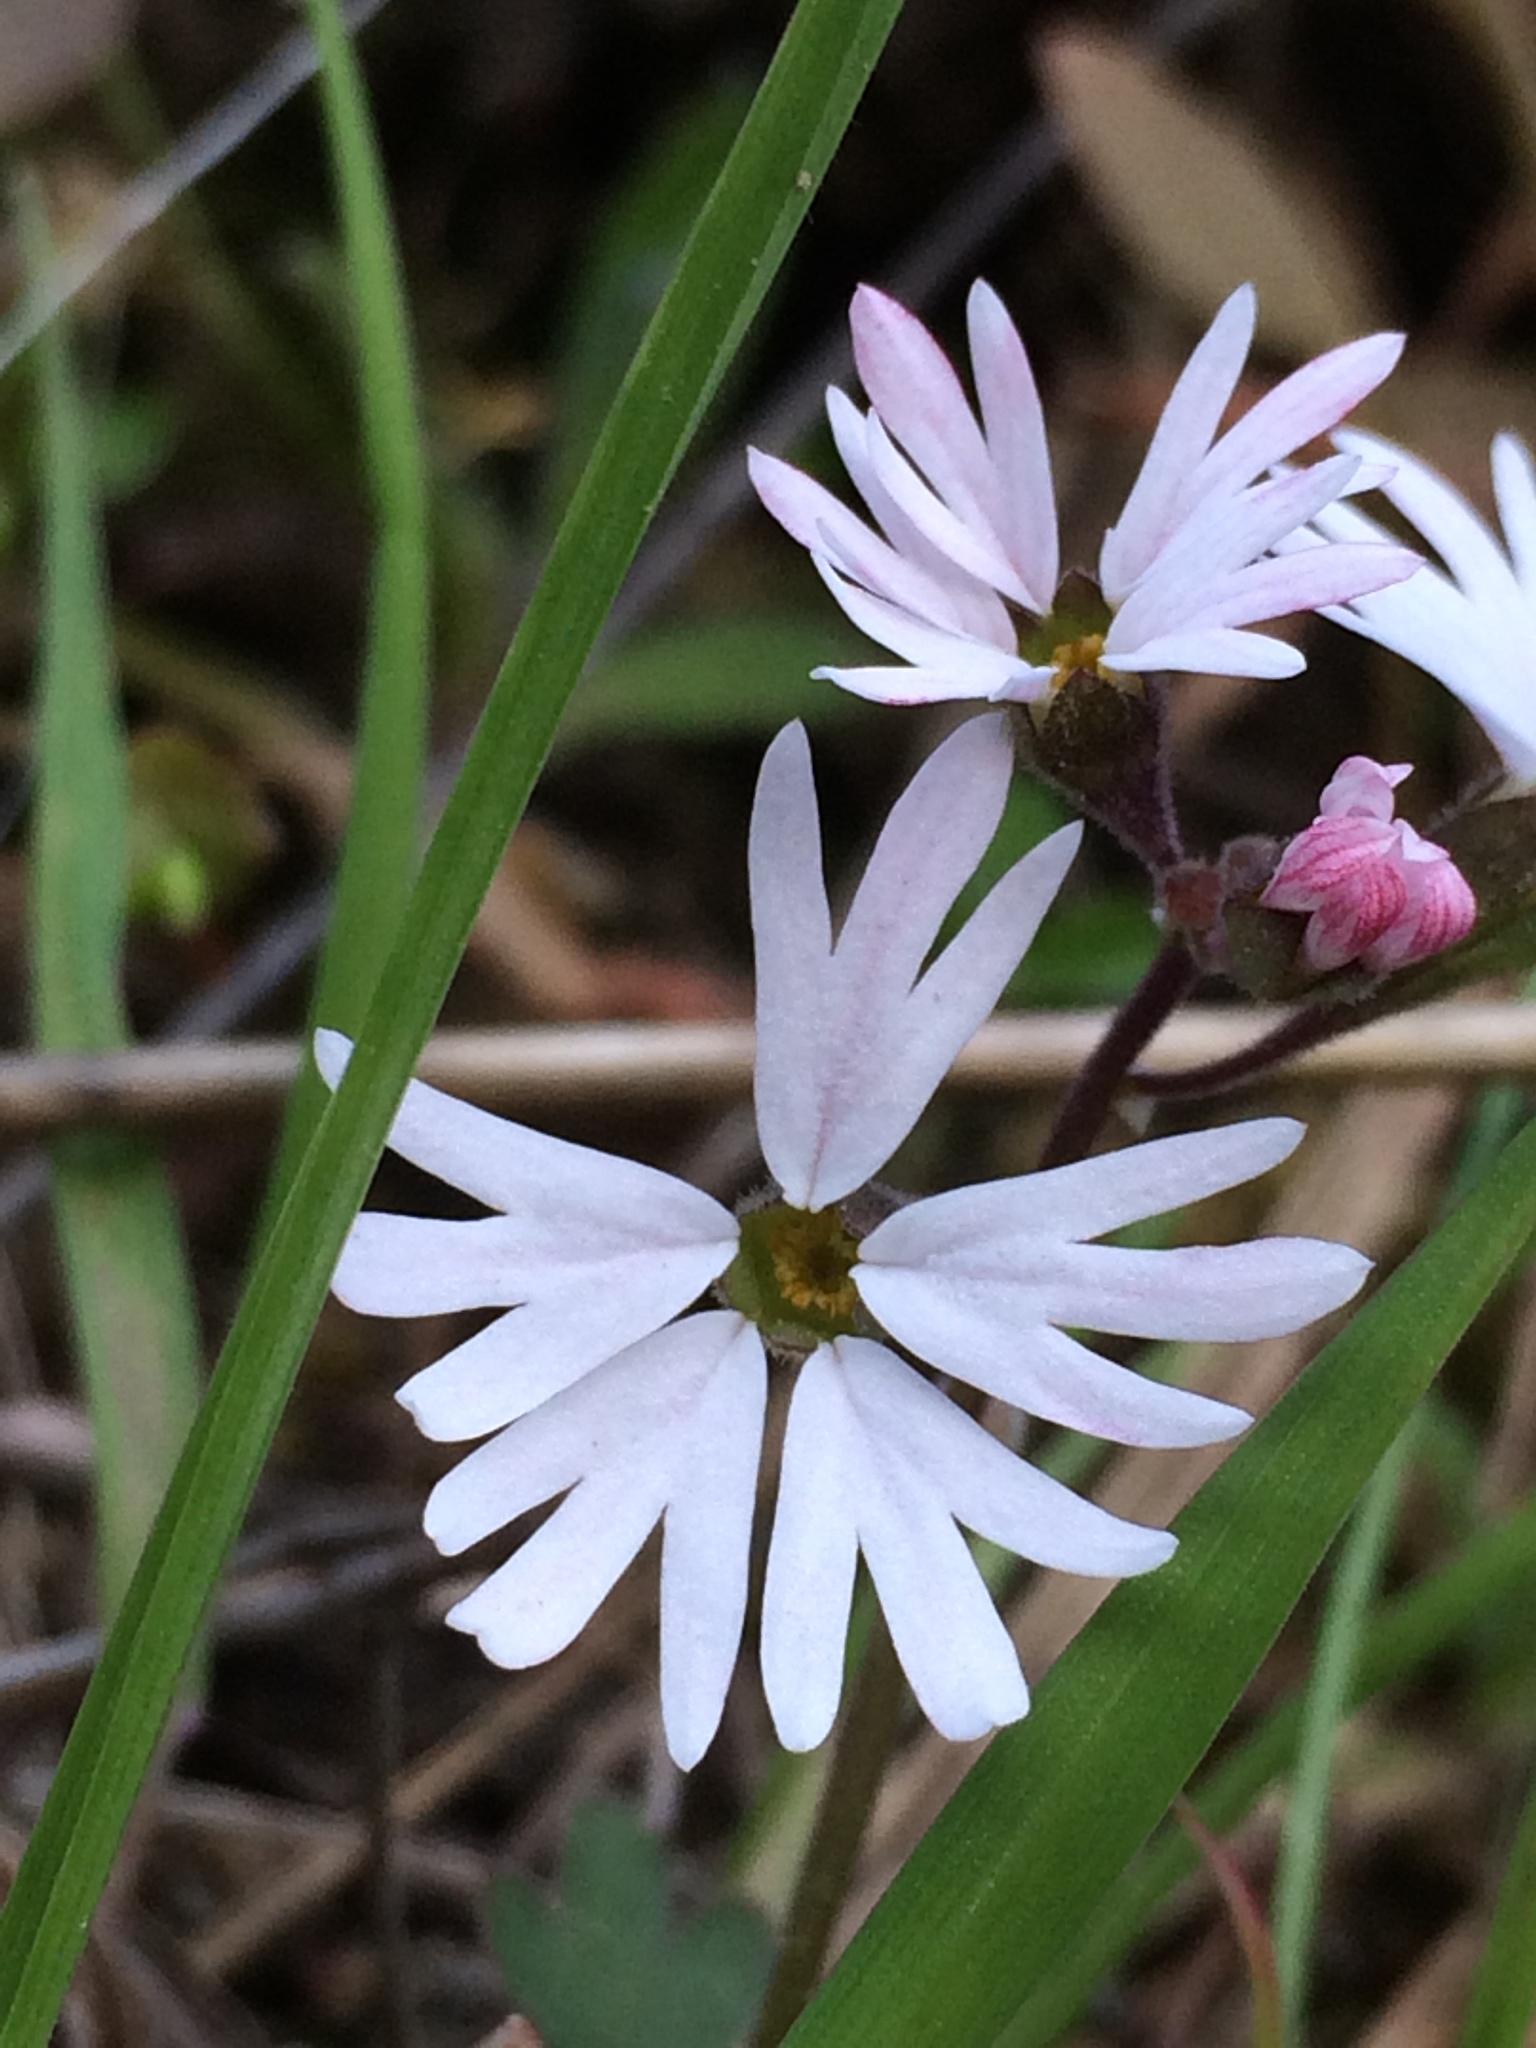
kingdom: Plantae
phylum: Tracheophyta
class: Magnoliopsida
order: Saxifragales
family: Saxifragaceae
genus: Lithophragma
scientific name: Lithophragma parviflorum
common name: Small-flowered fringe-cup
